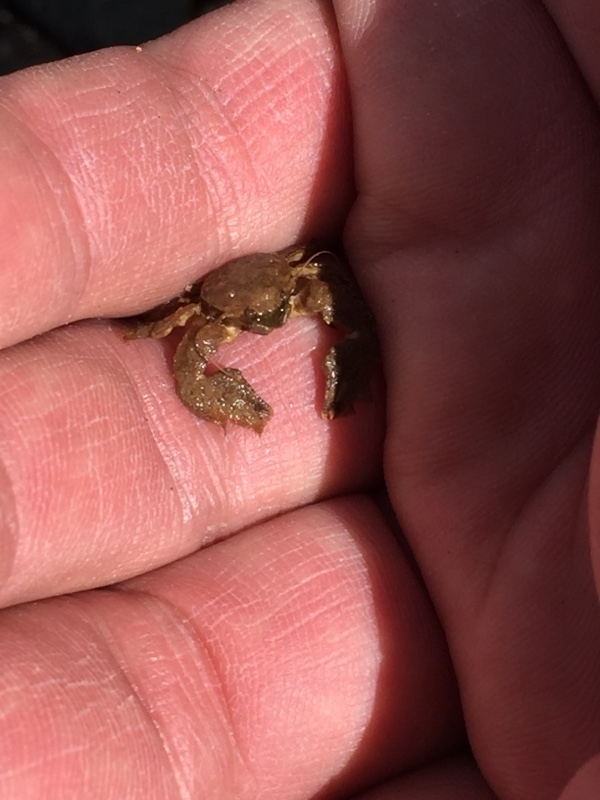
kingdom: Animalia
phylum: Arthropoda
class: Malacostraca
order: Decapoda
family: Porcellanidae
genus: Porcellana
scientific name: Porcellana platycheles
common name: Porcelain crab
